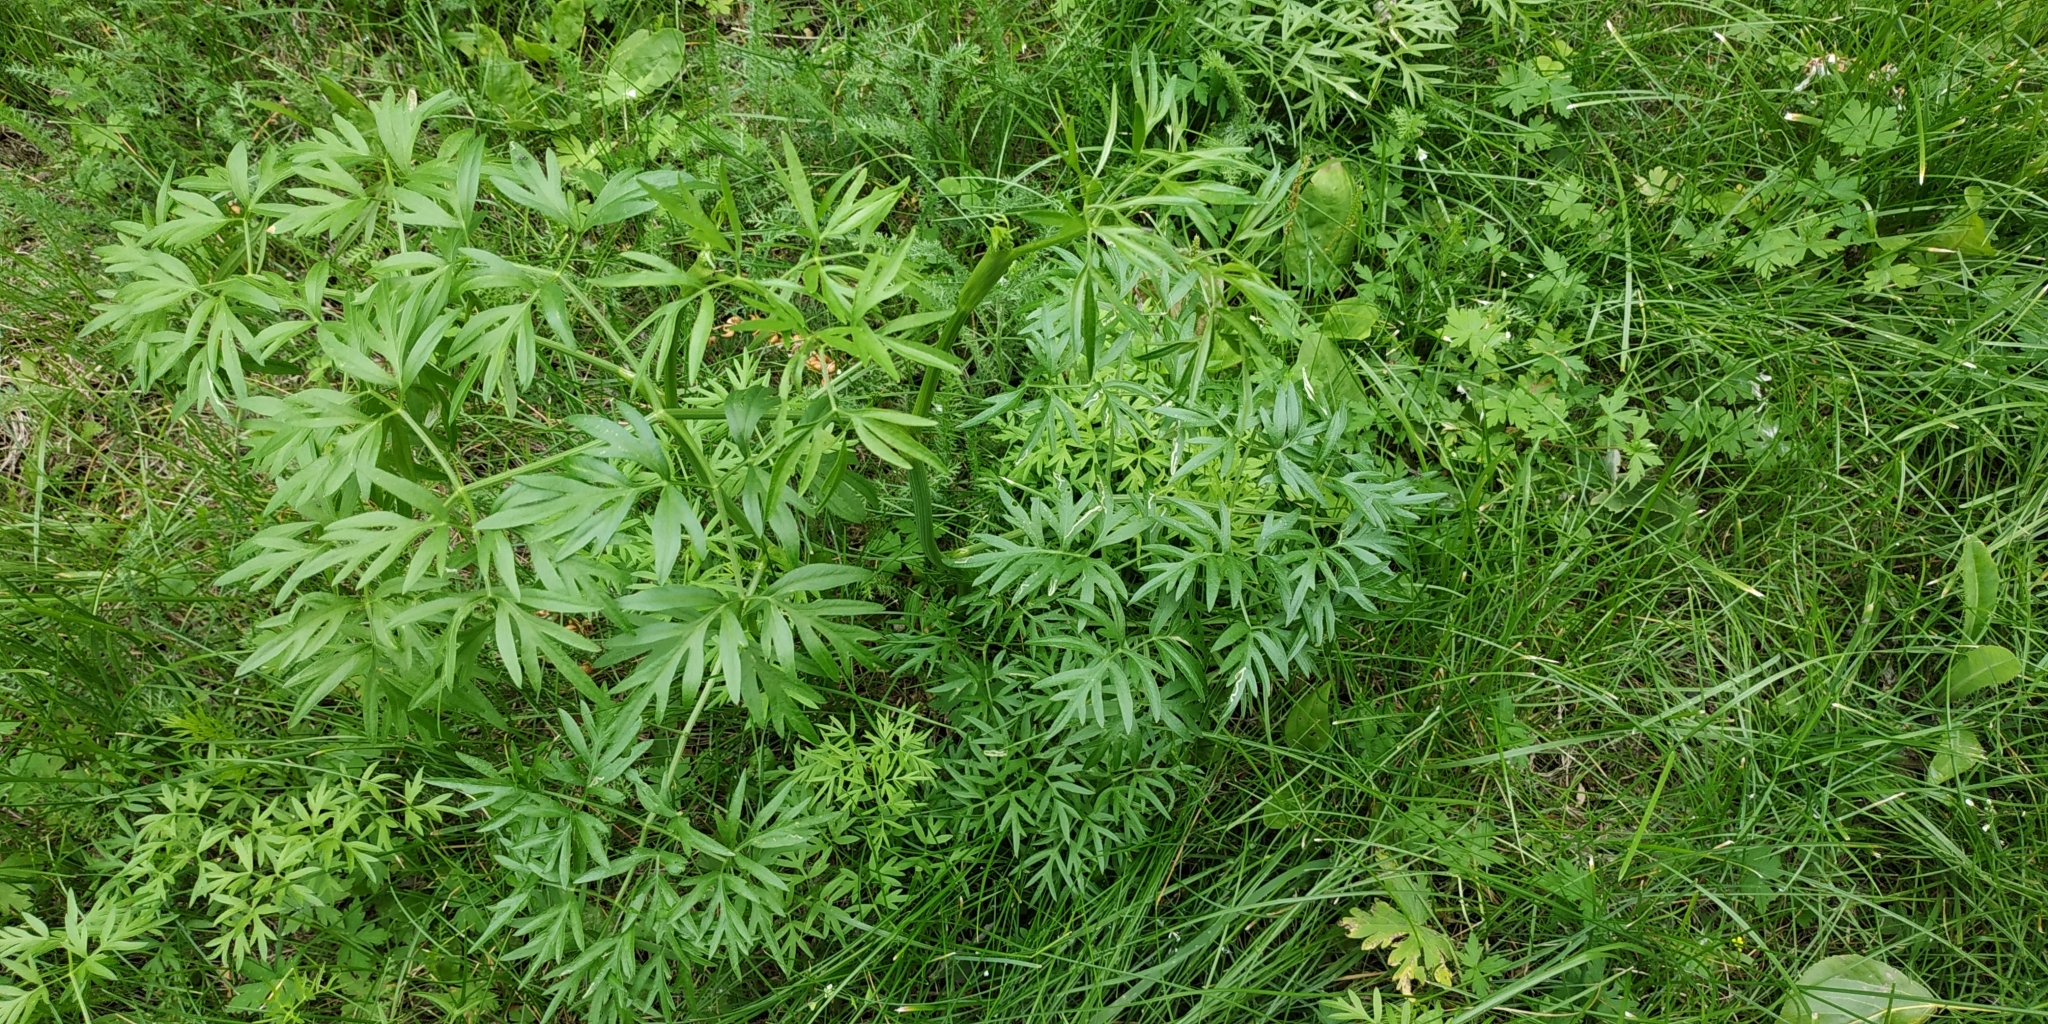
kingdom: Plantae
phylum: Tracheophyta
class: Magnoliopsida
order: Apiales
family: Apiaceae
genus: Cenolophium
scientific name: Cenolophium fischeri
